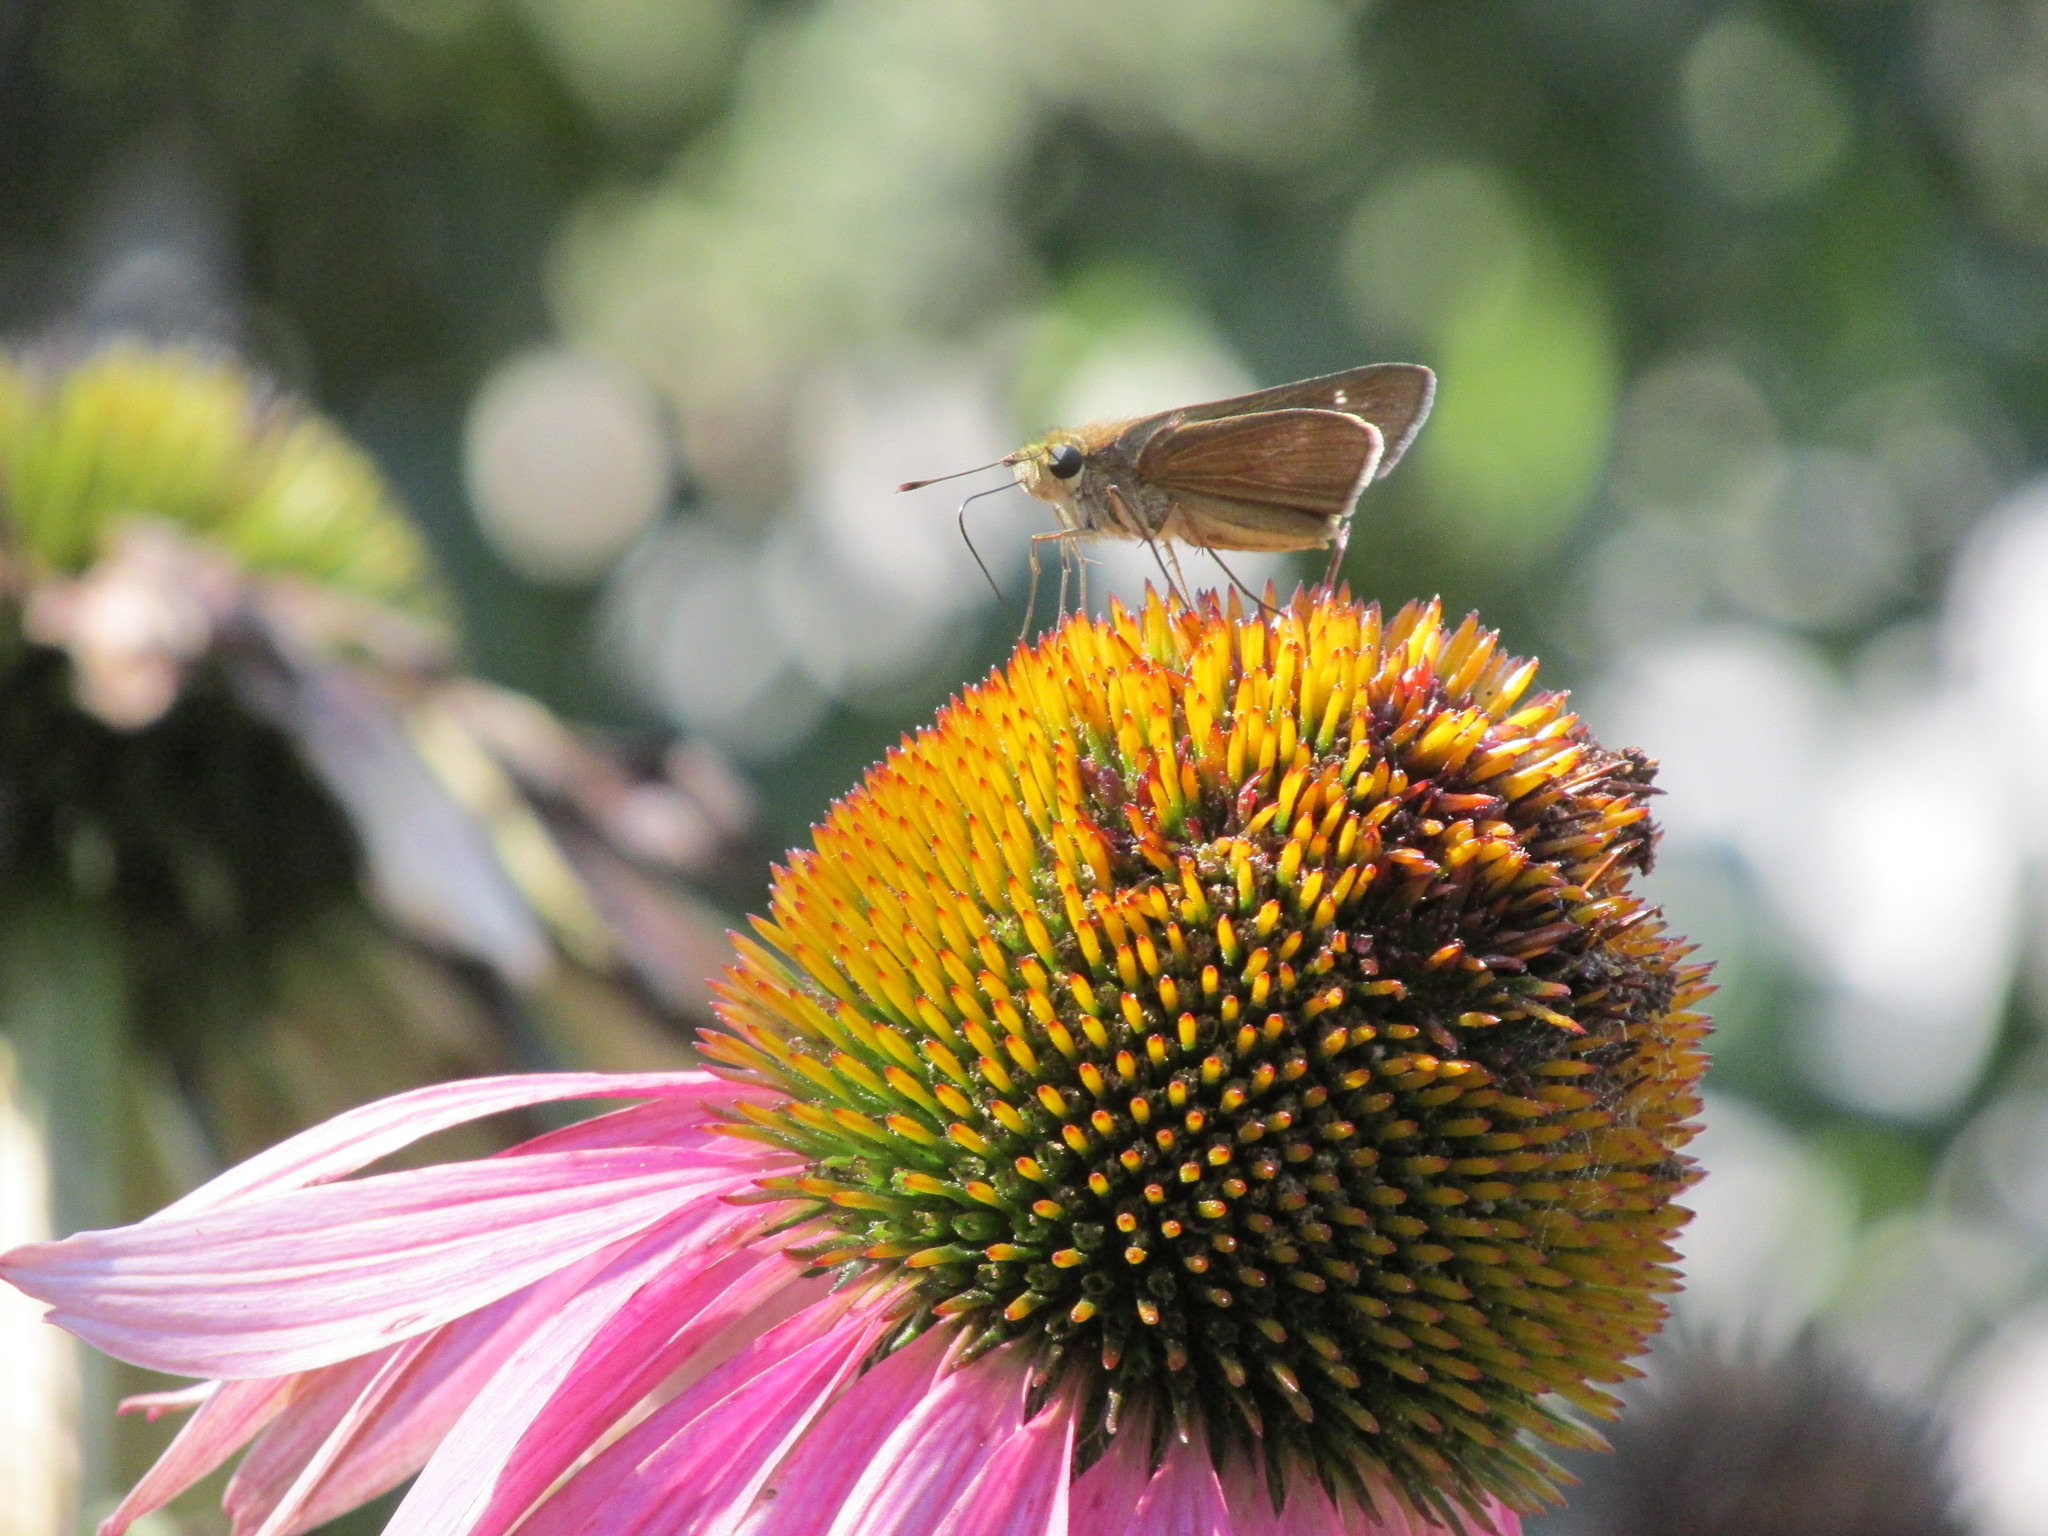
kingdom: Animalia
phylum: Arthropoda
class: Insecta
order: Lepidoptera
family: Hesperiidae
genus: Panoquina
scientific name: Panoquina ocola
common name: Ocola skipper
